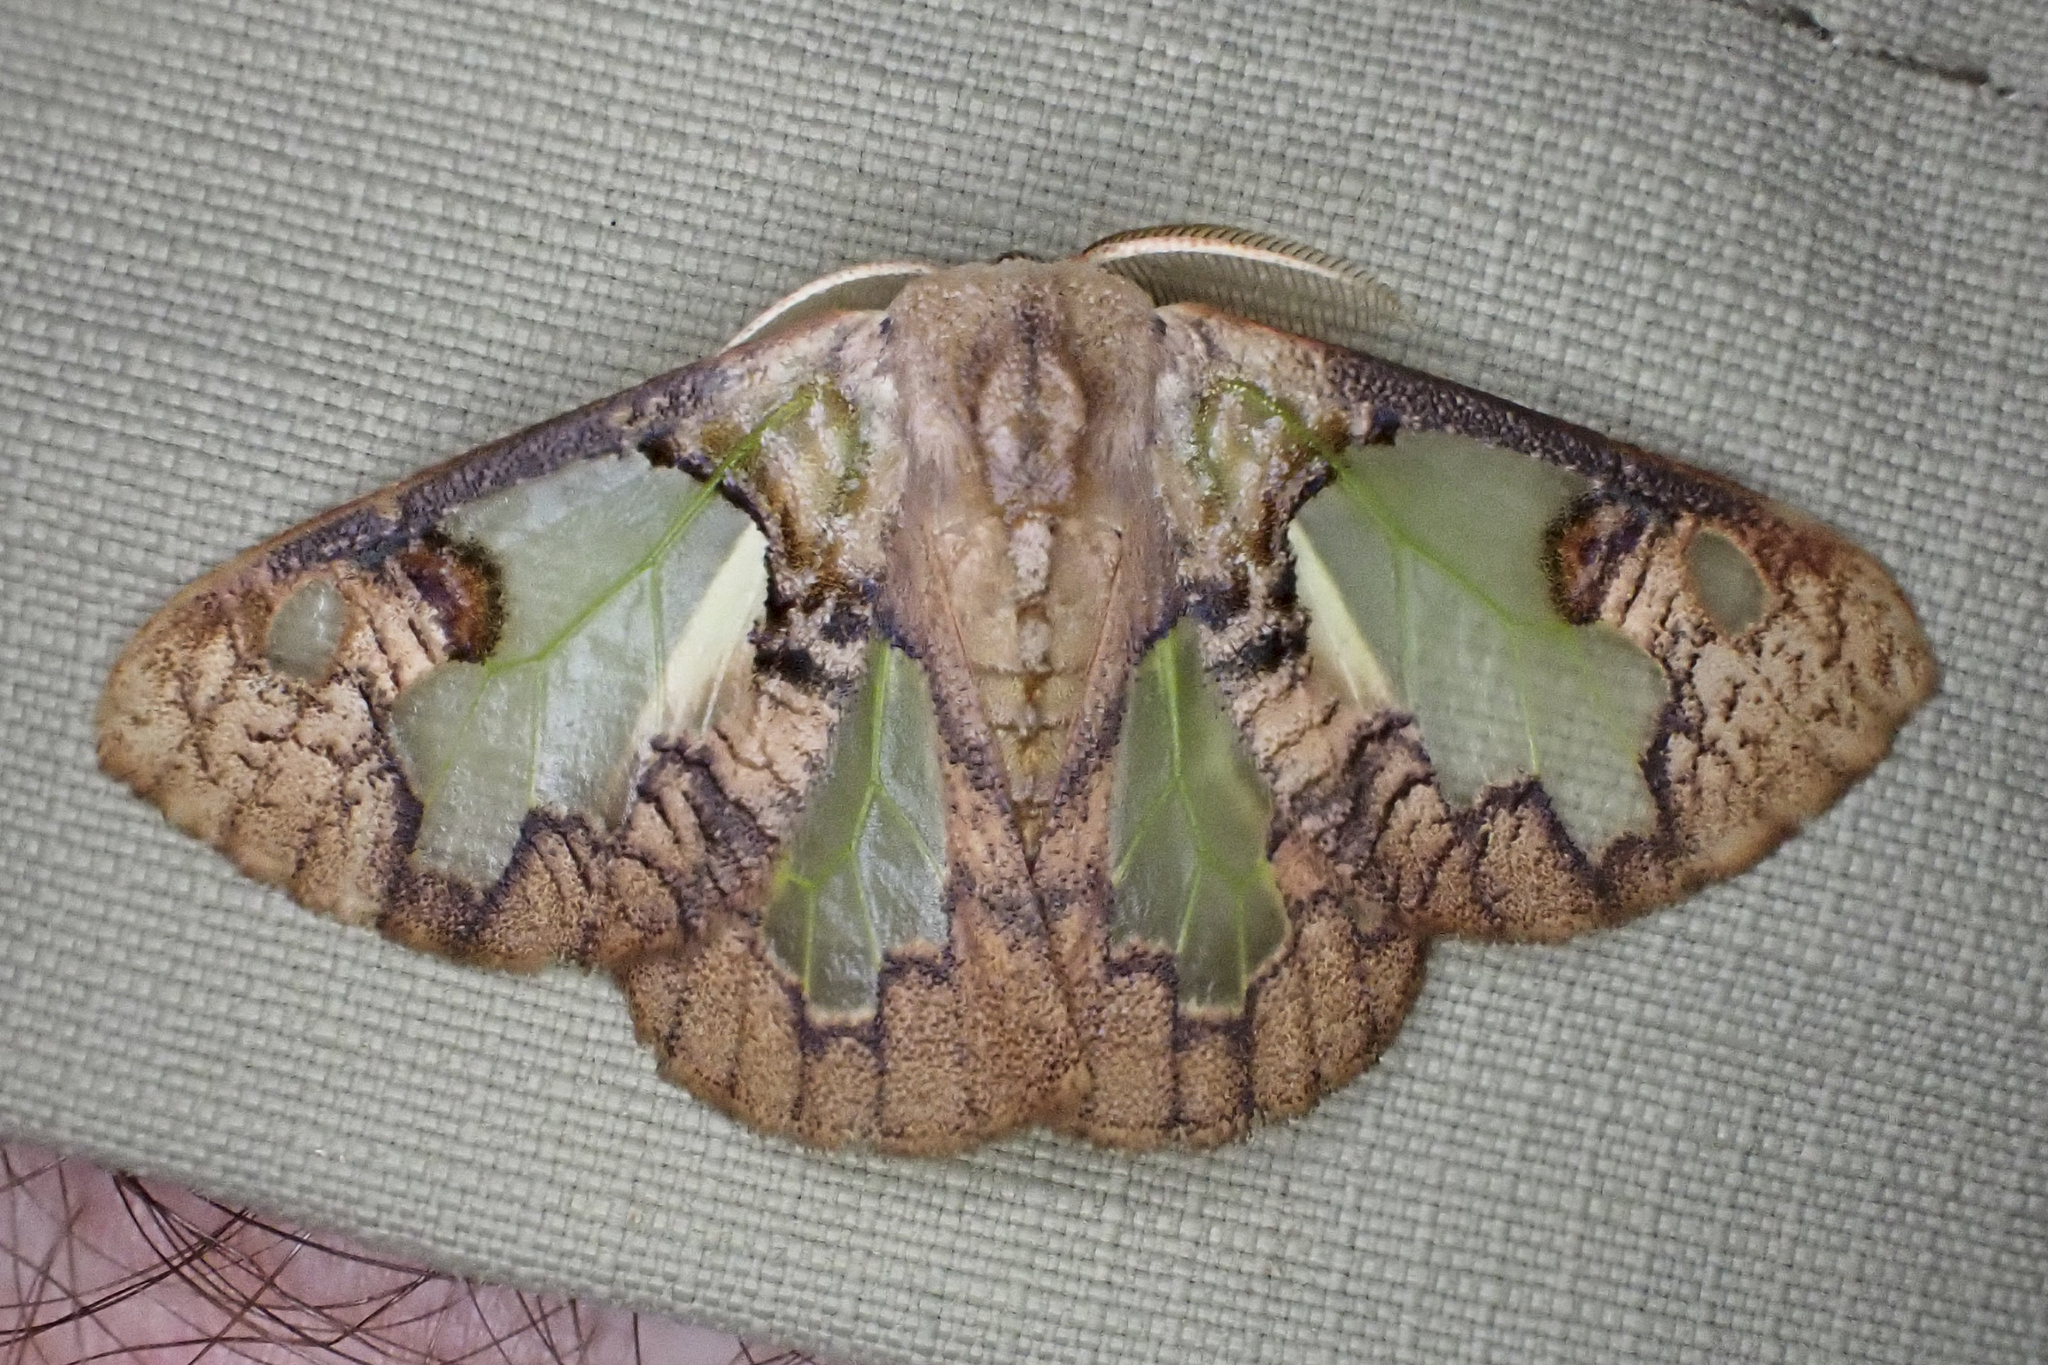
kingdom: Animalia
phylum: Arthropoda
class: Insecta
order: Lepidoptera
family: Erebidae
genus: Carriola
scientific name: Carriola
